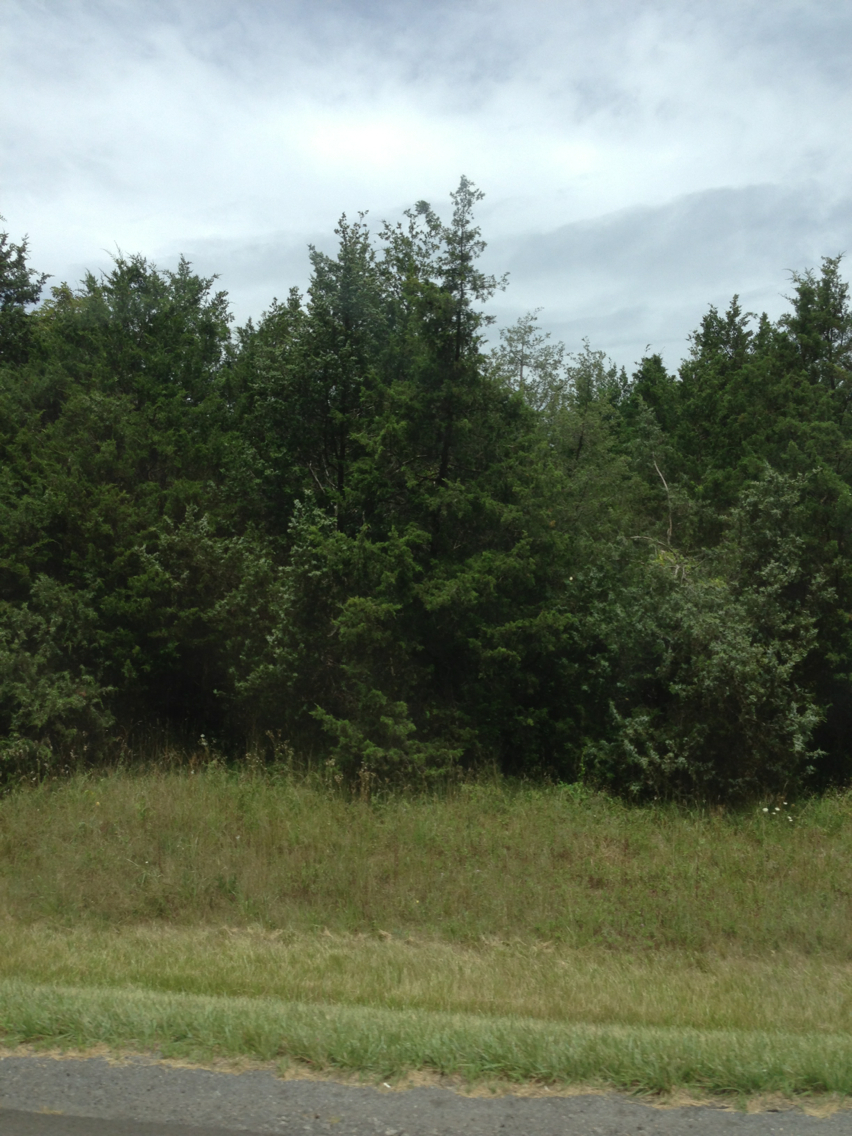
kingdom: Plantae
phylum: Tracheophyta
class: Pinopsida
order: Pinales
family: Cupressaceae
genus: Juniperus
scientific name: Juniperus virginiana
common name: Red juniper
